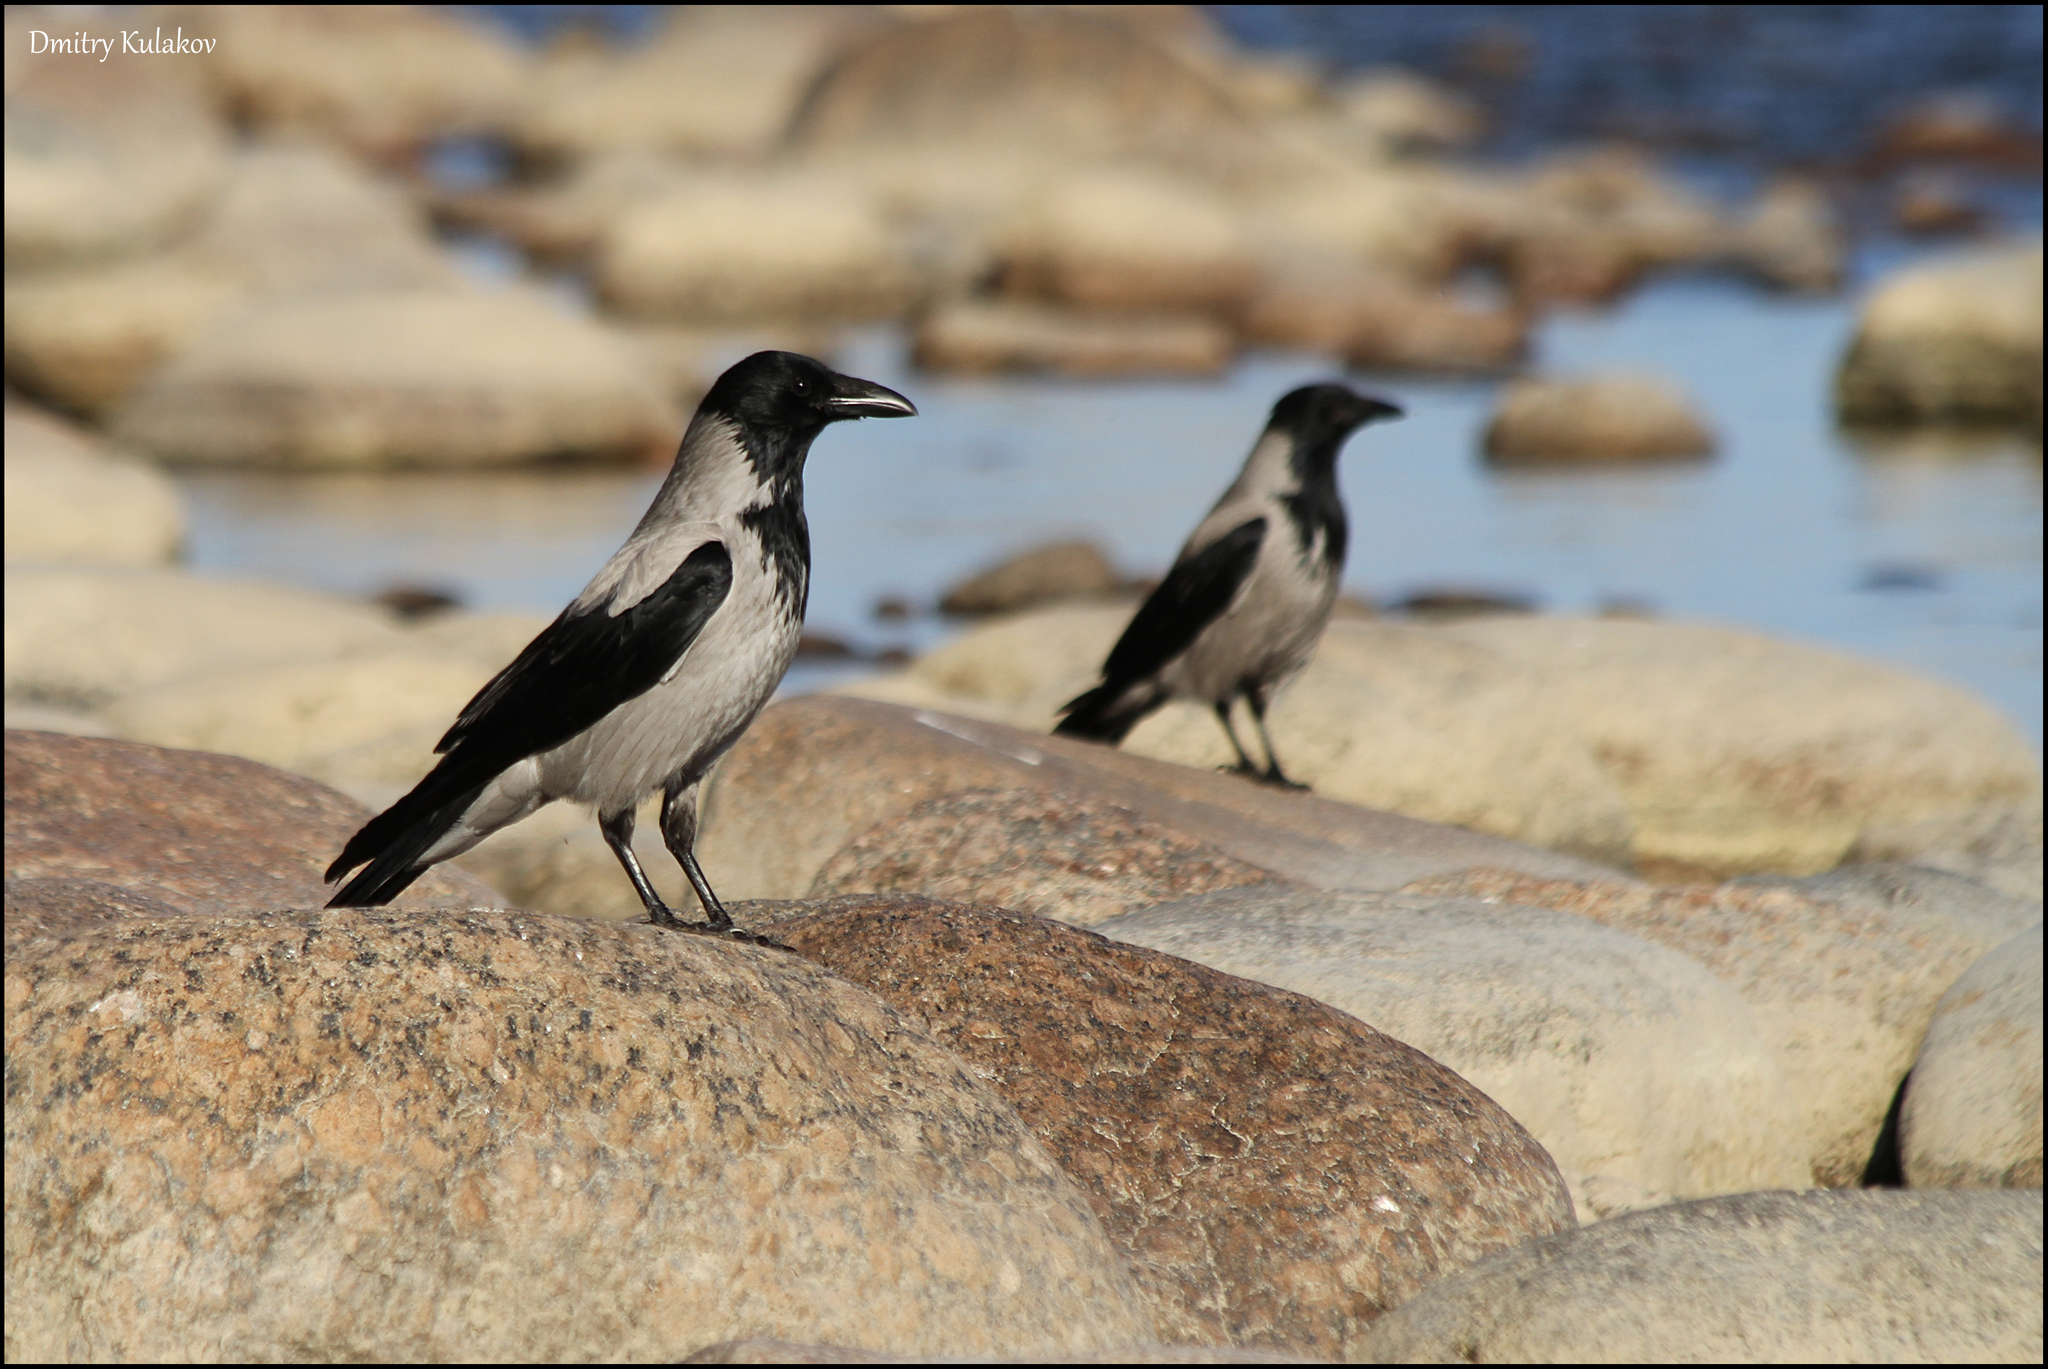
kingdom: Animalia
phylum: Chordata
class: Aves
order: Passeriformes
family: Corvidae
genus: Corvus
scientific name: Corvus cornix
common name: Hooded crow
